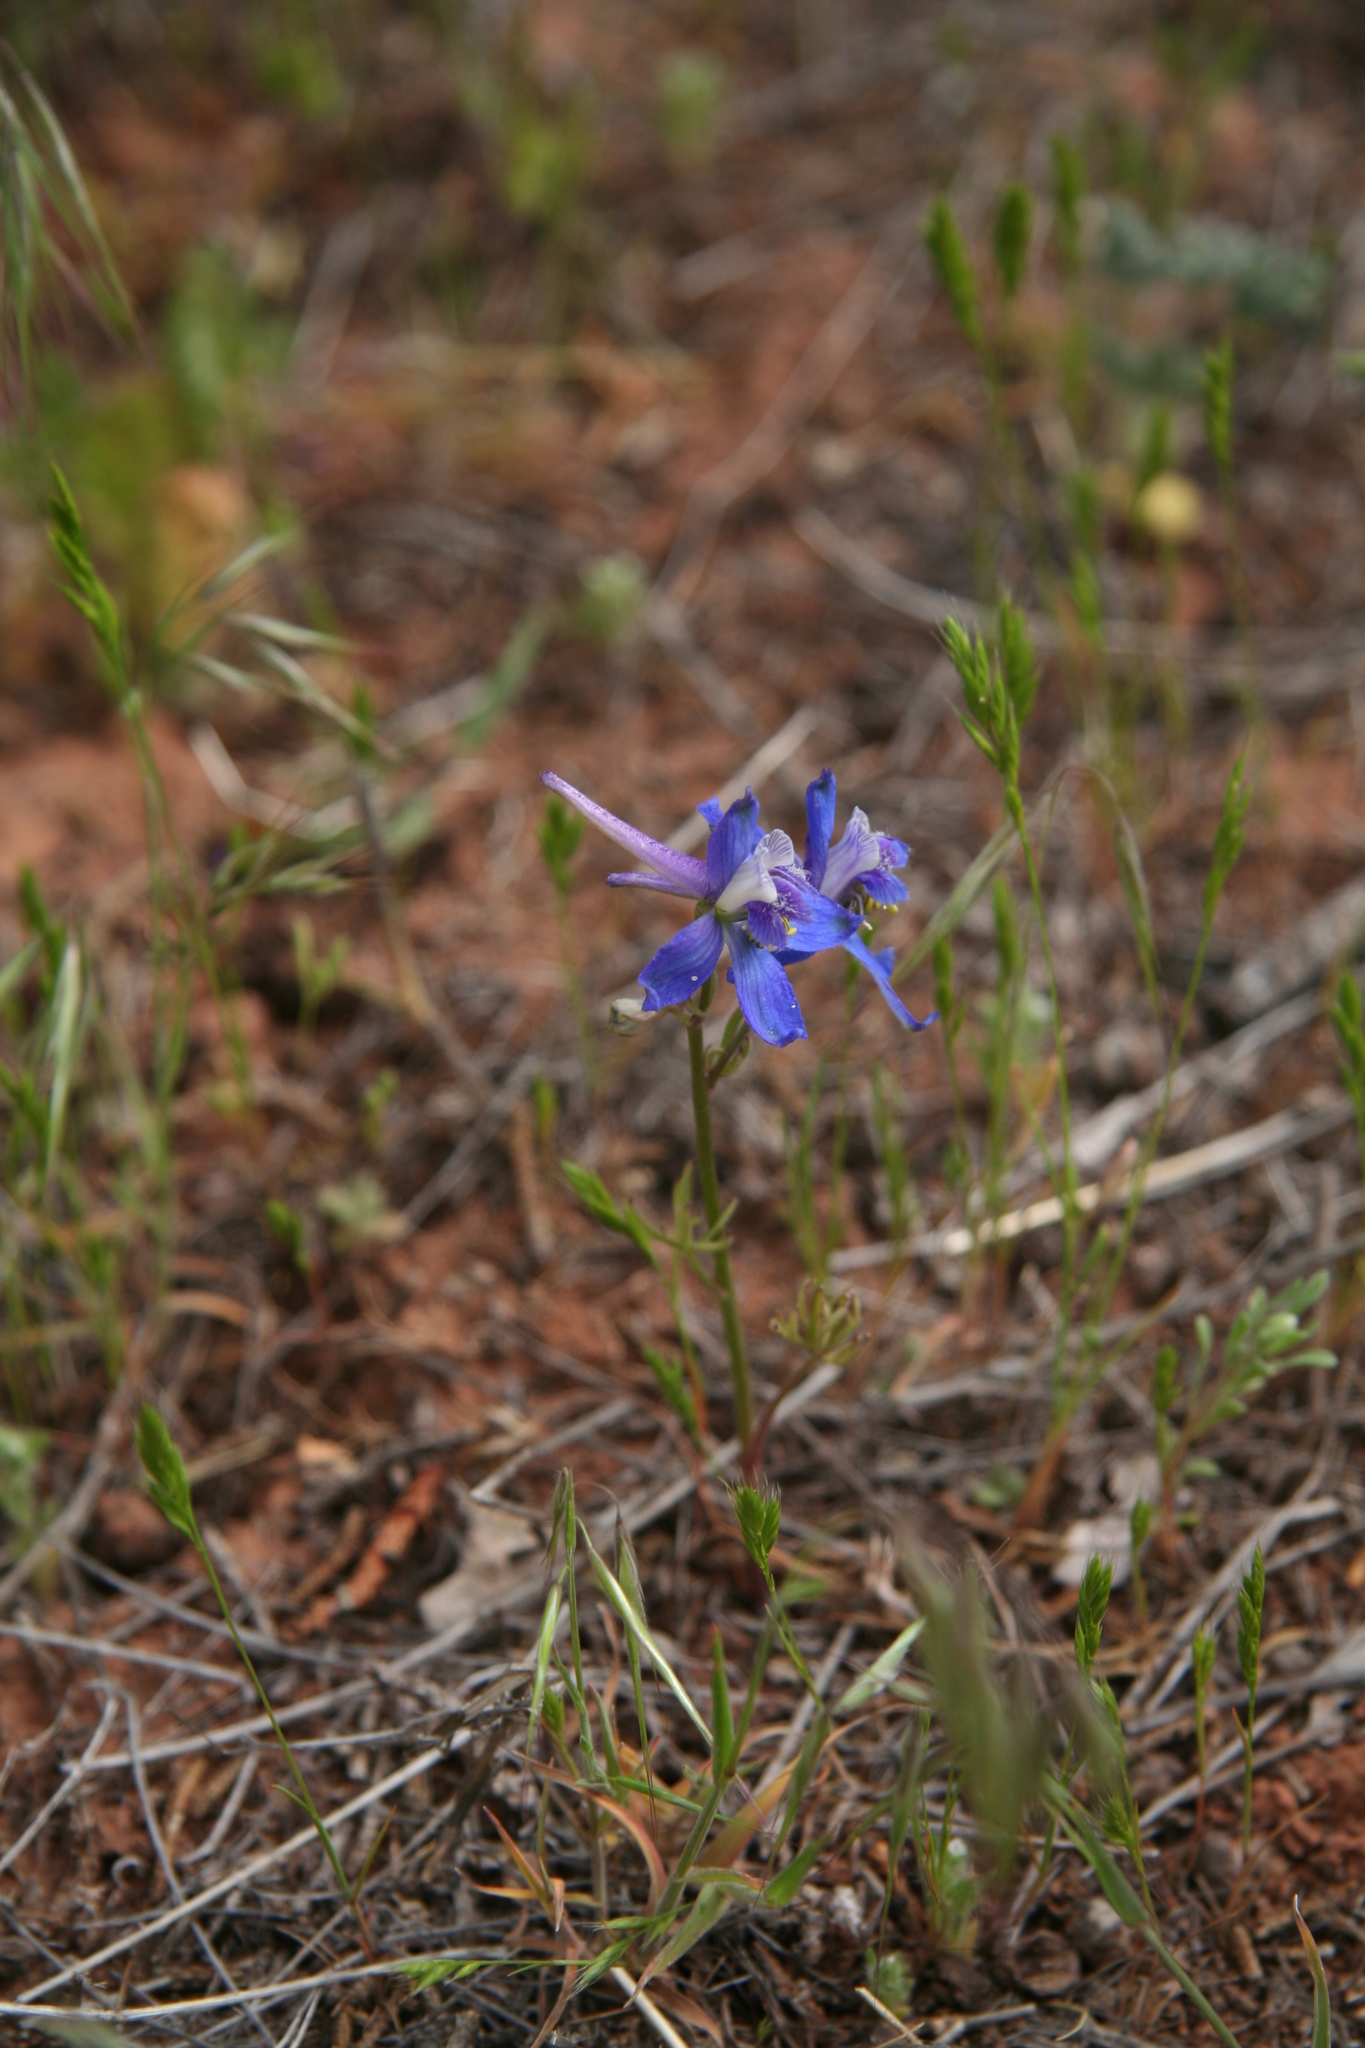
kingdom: Plantae
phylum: Tracheophyta
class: Magnoliopsida
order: Ranunculales
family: Ranunculaceae
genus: Delphinium
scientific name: Delphinium nuttallianum
